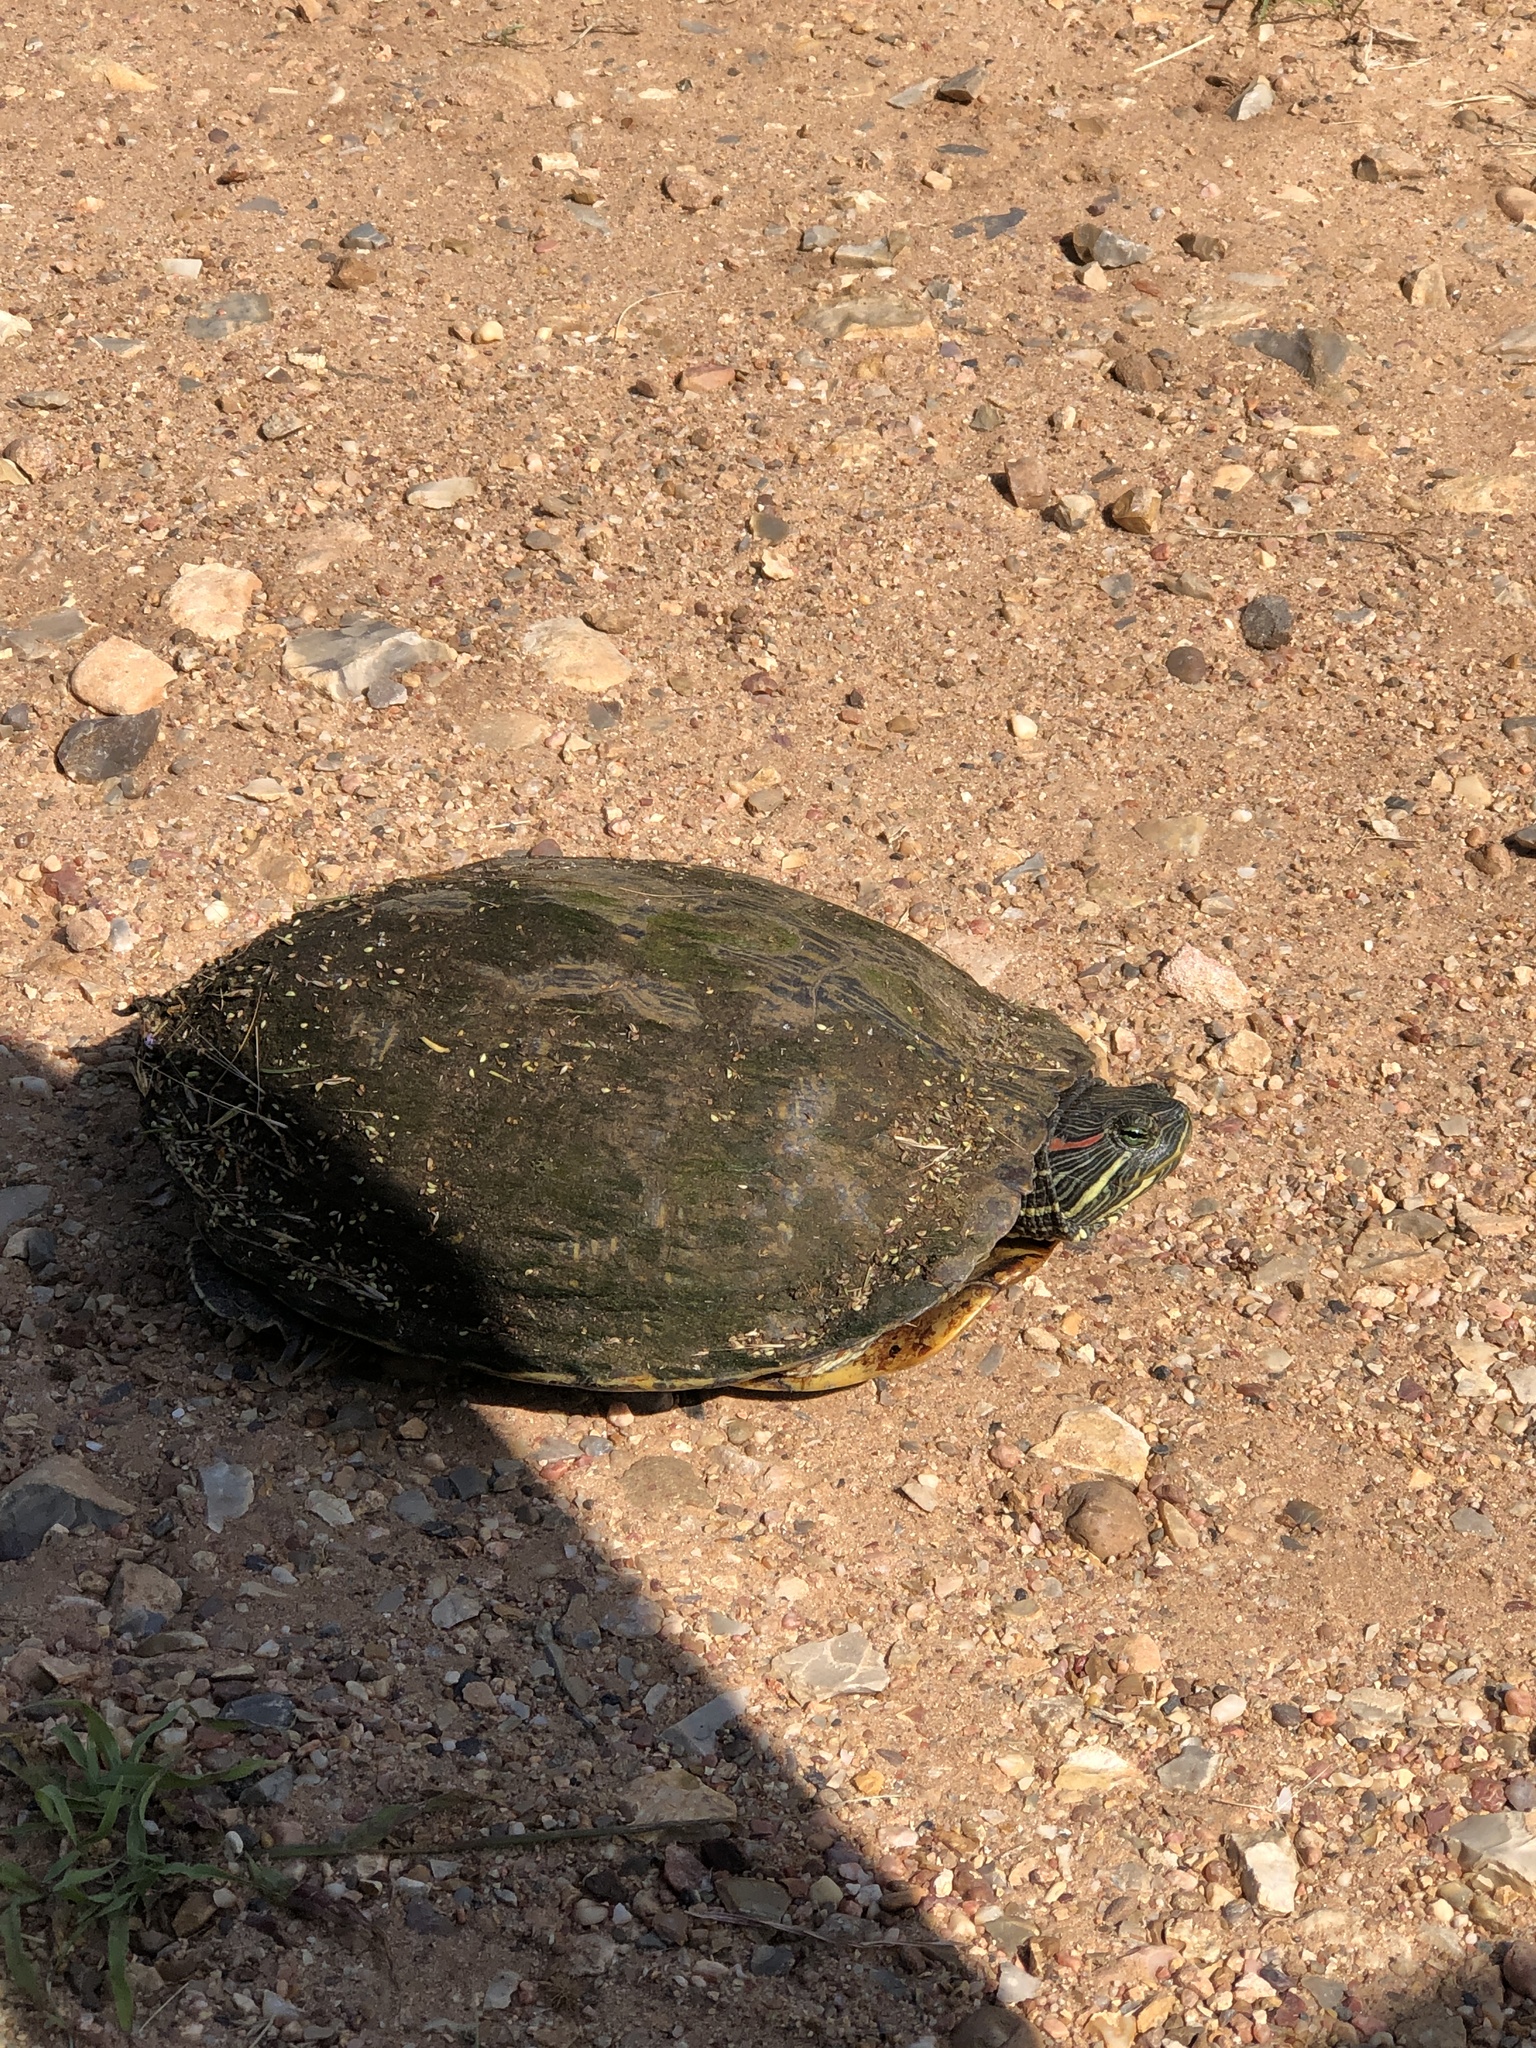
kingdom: Animalia
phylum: Chordata
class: Testudines
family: Emydidae
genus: Trachemys
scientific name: Trachemys scripta
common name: Slider
